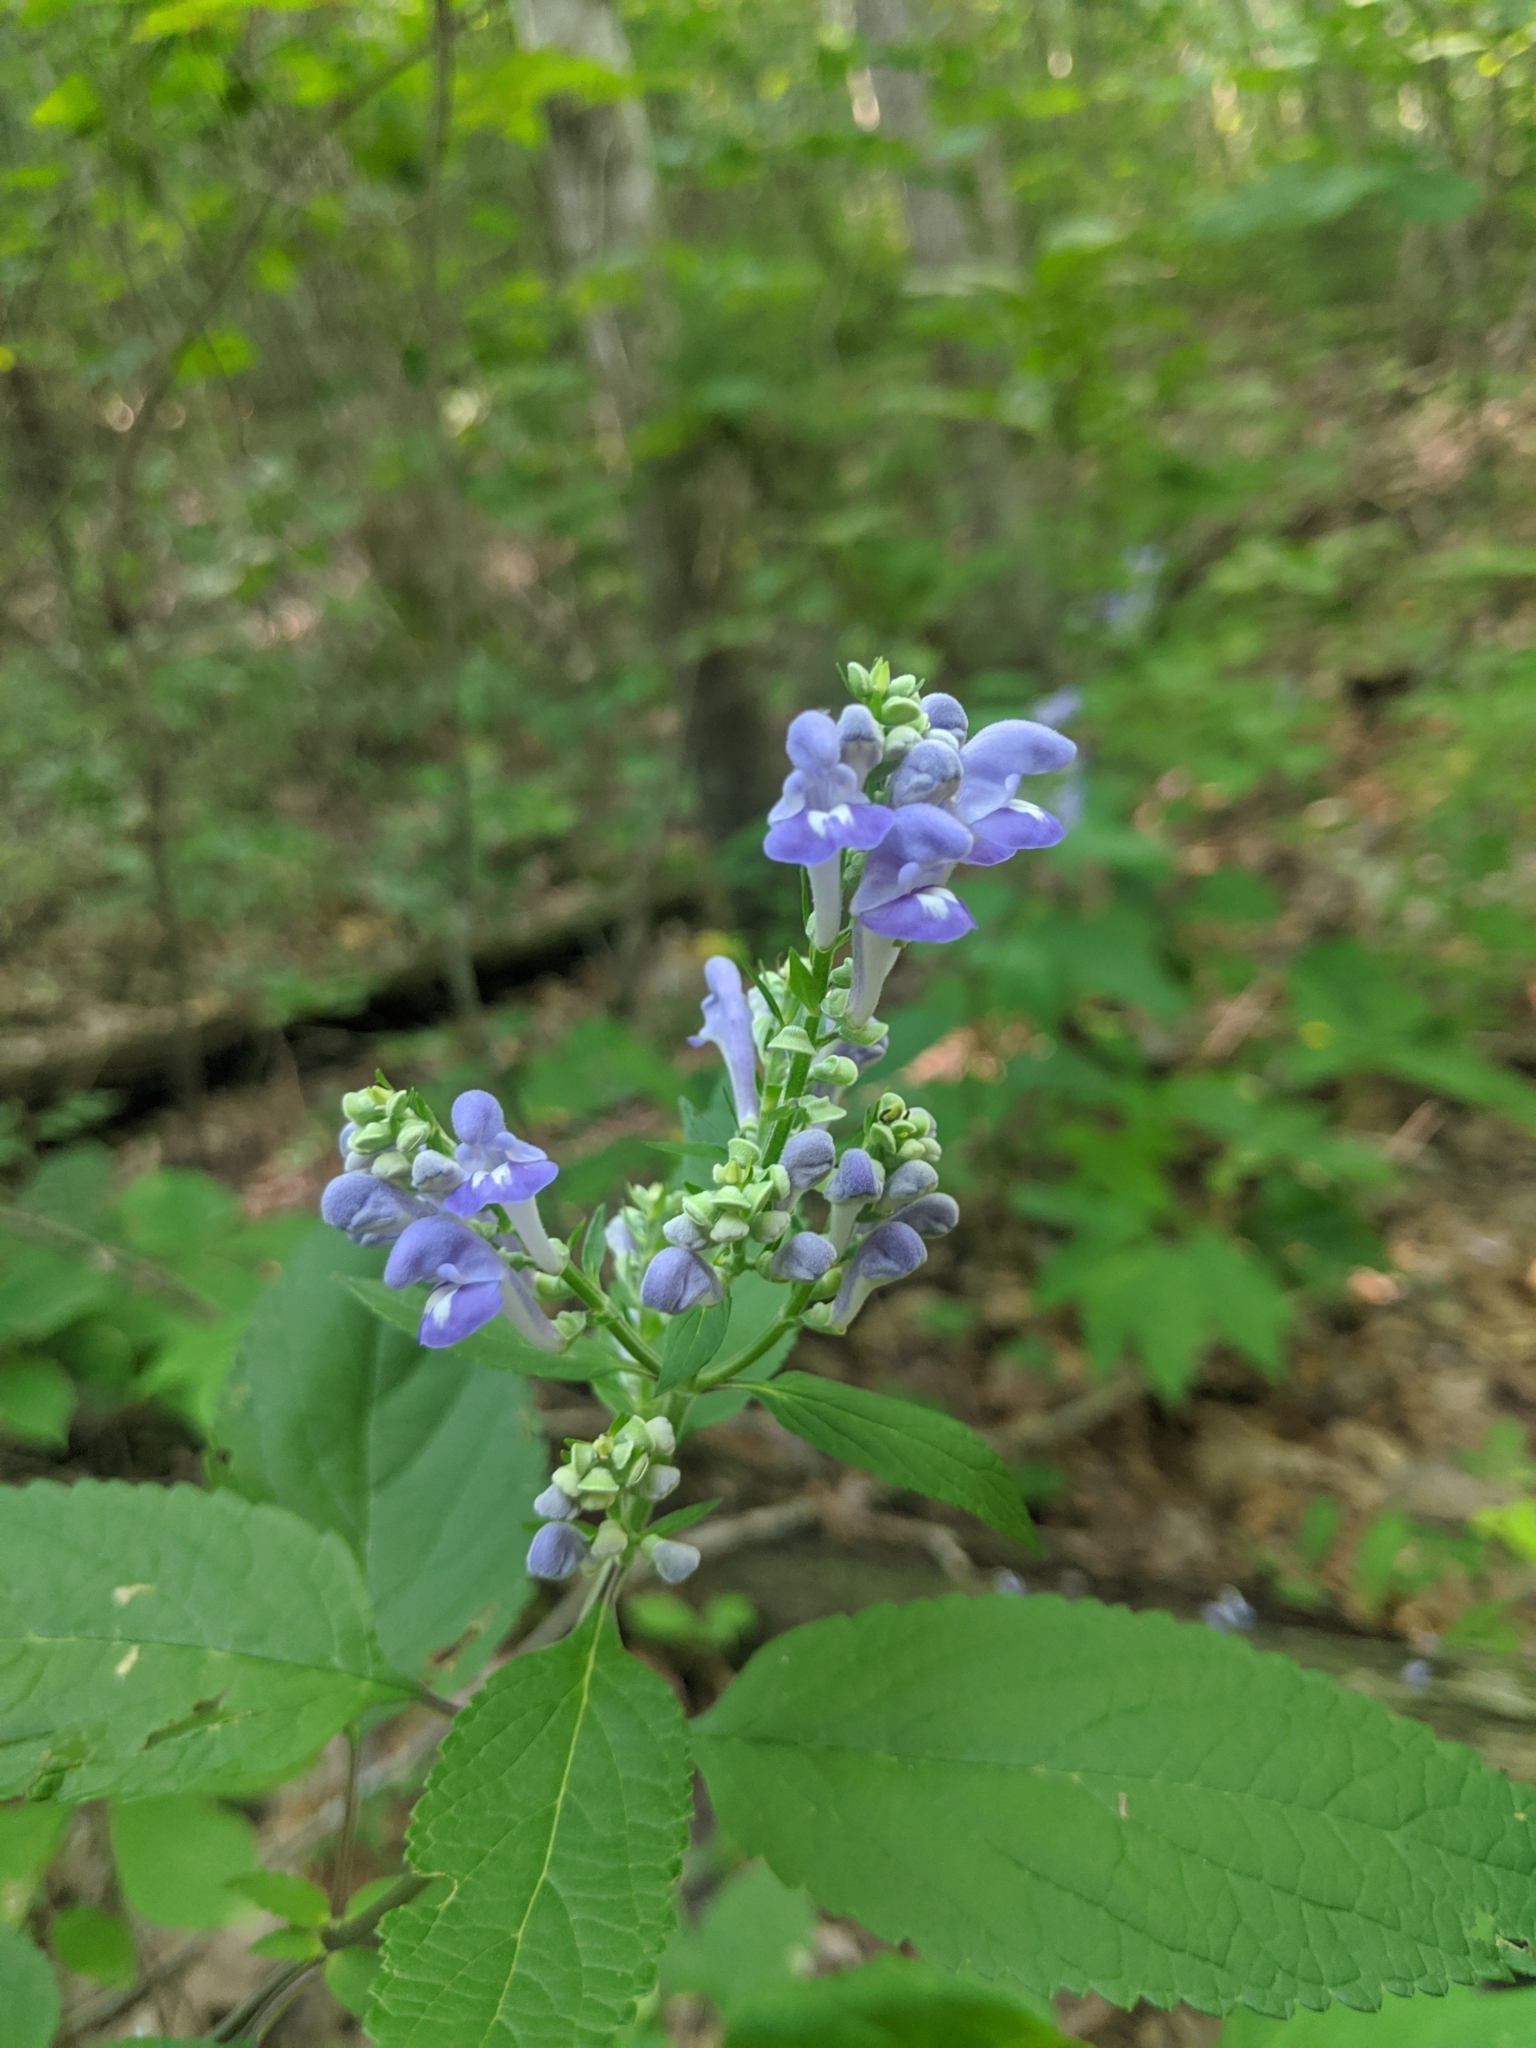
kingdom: Plantae
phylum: Tracheophyta
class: Magnoliopsida
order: Lamiales
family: Lamiaceae
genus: Scutellaria
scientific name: Scutellaria incana
